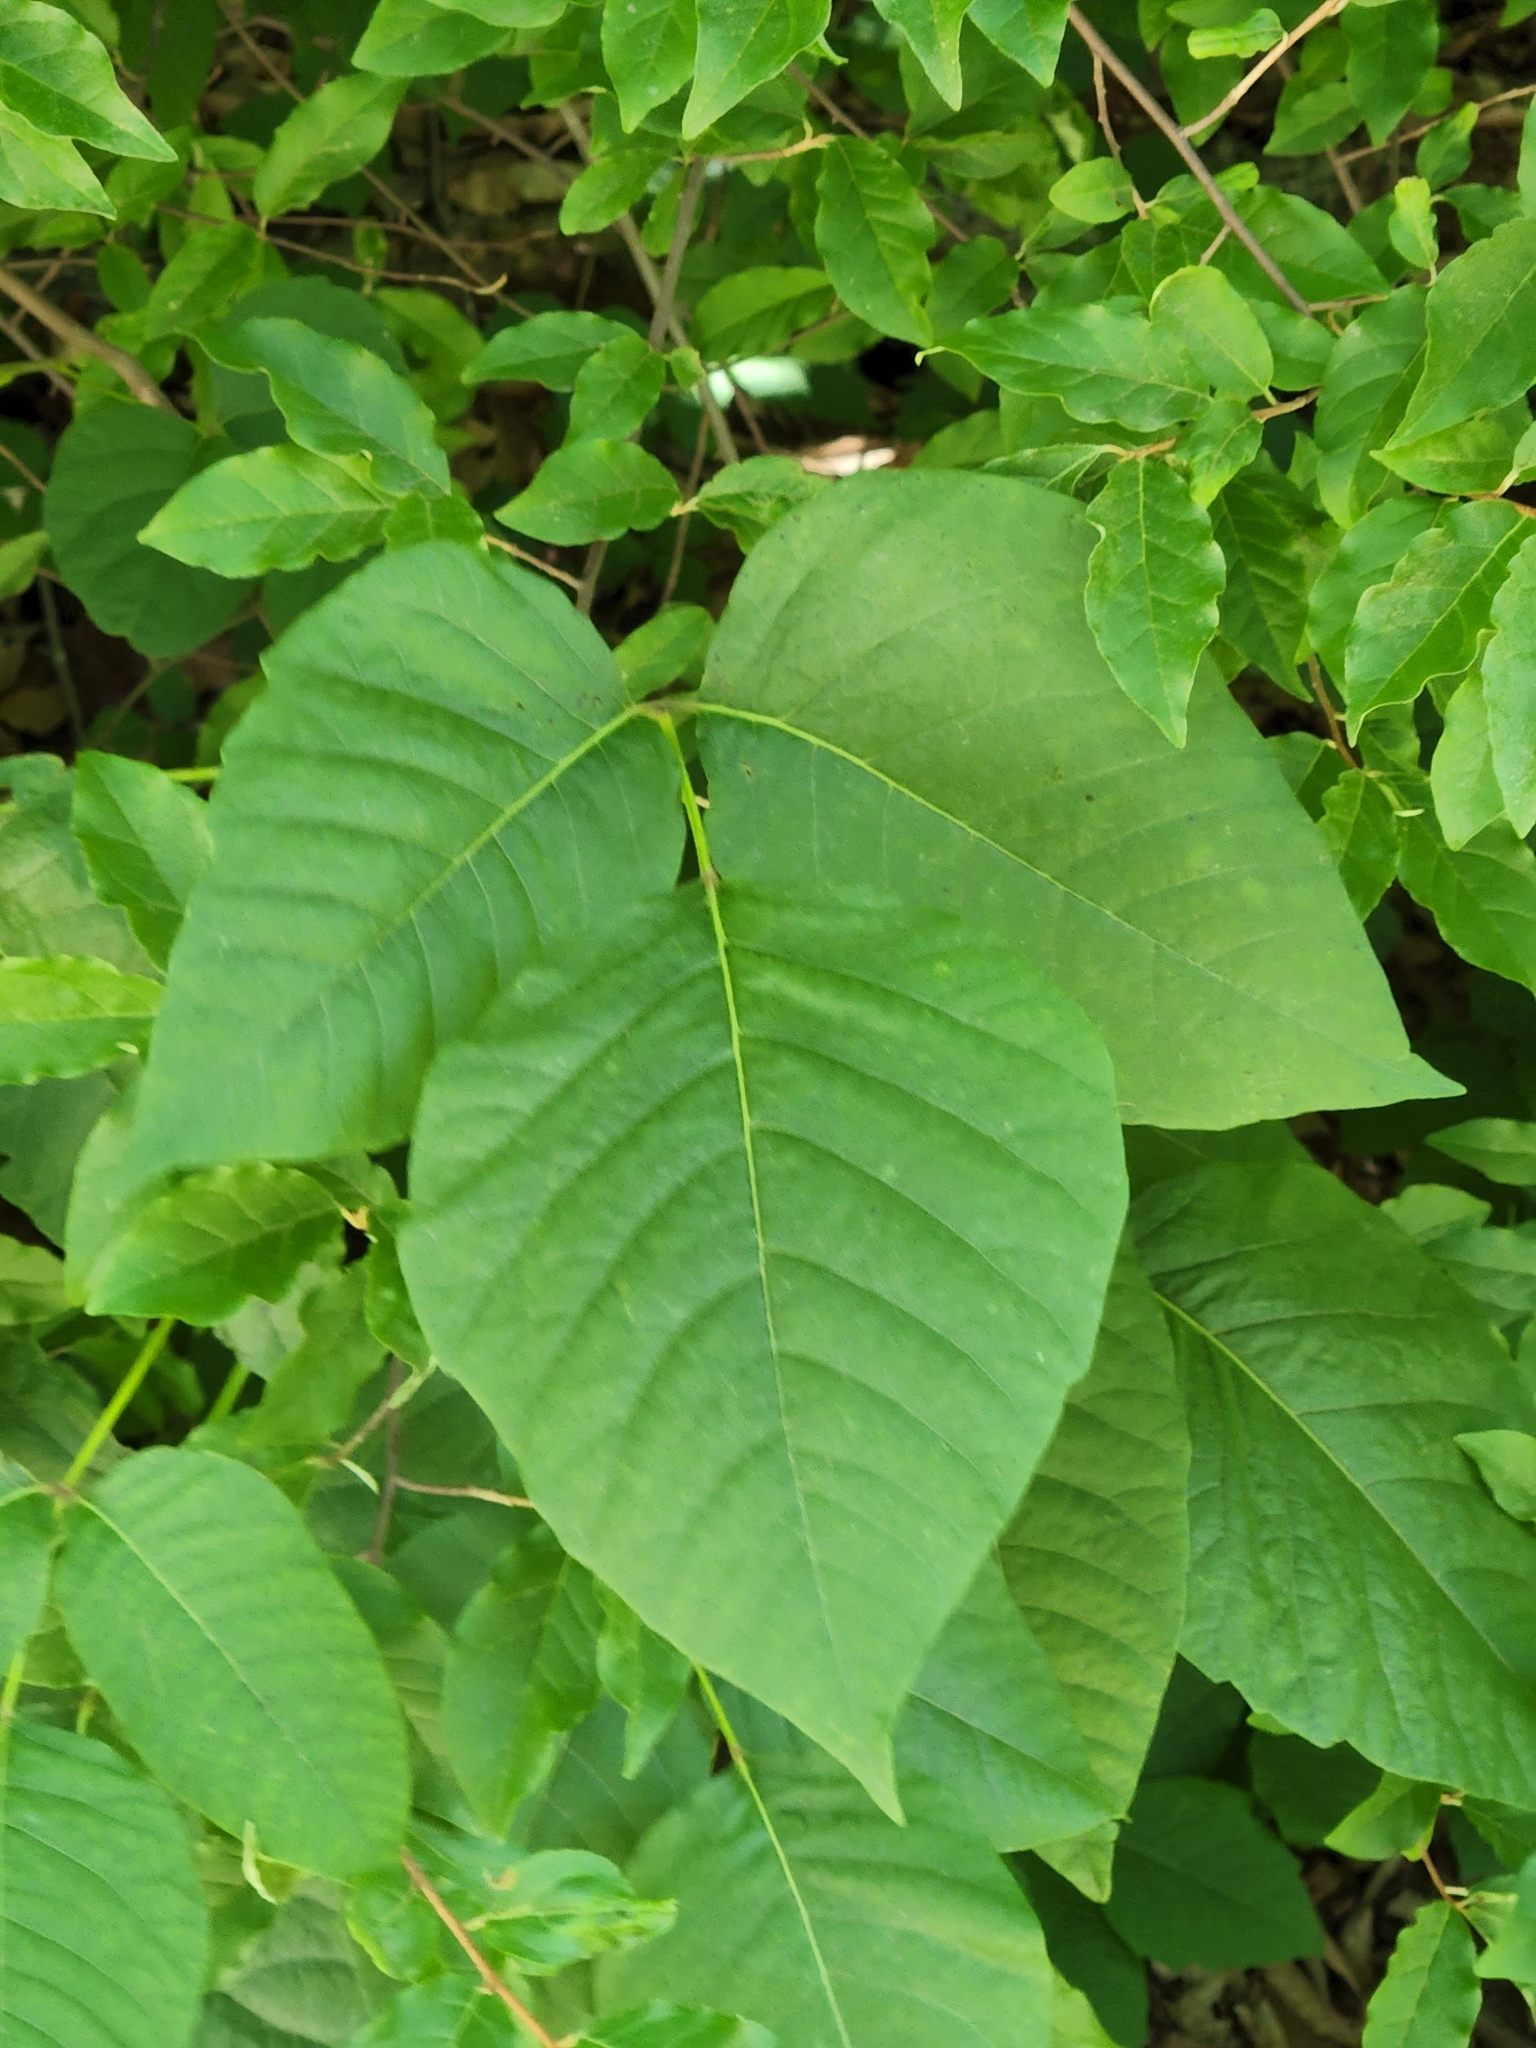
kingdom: Plantae
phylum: Tracheophyta
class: Magnoliopsida
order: Sapindales
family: Anacardiaceae
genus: Toxicodendron
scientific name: Toxicodendron radicans
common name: Poison ivy
